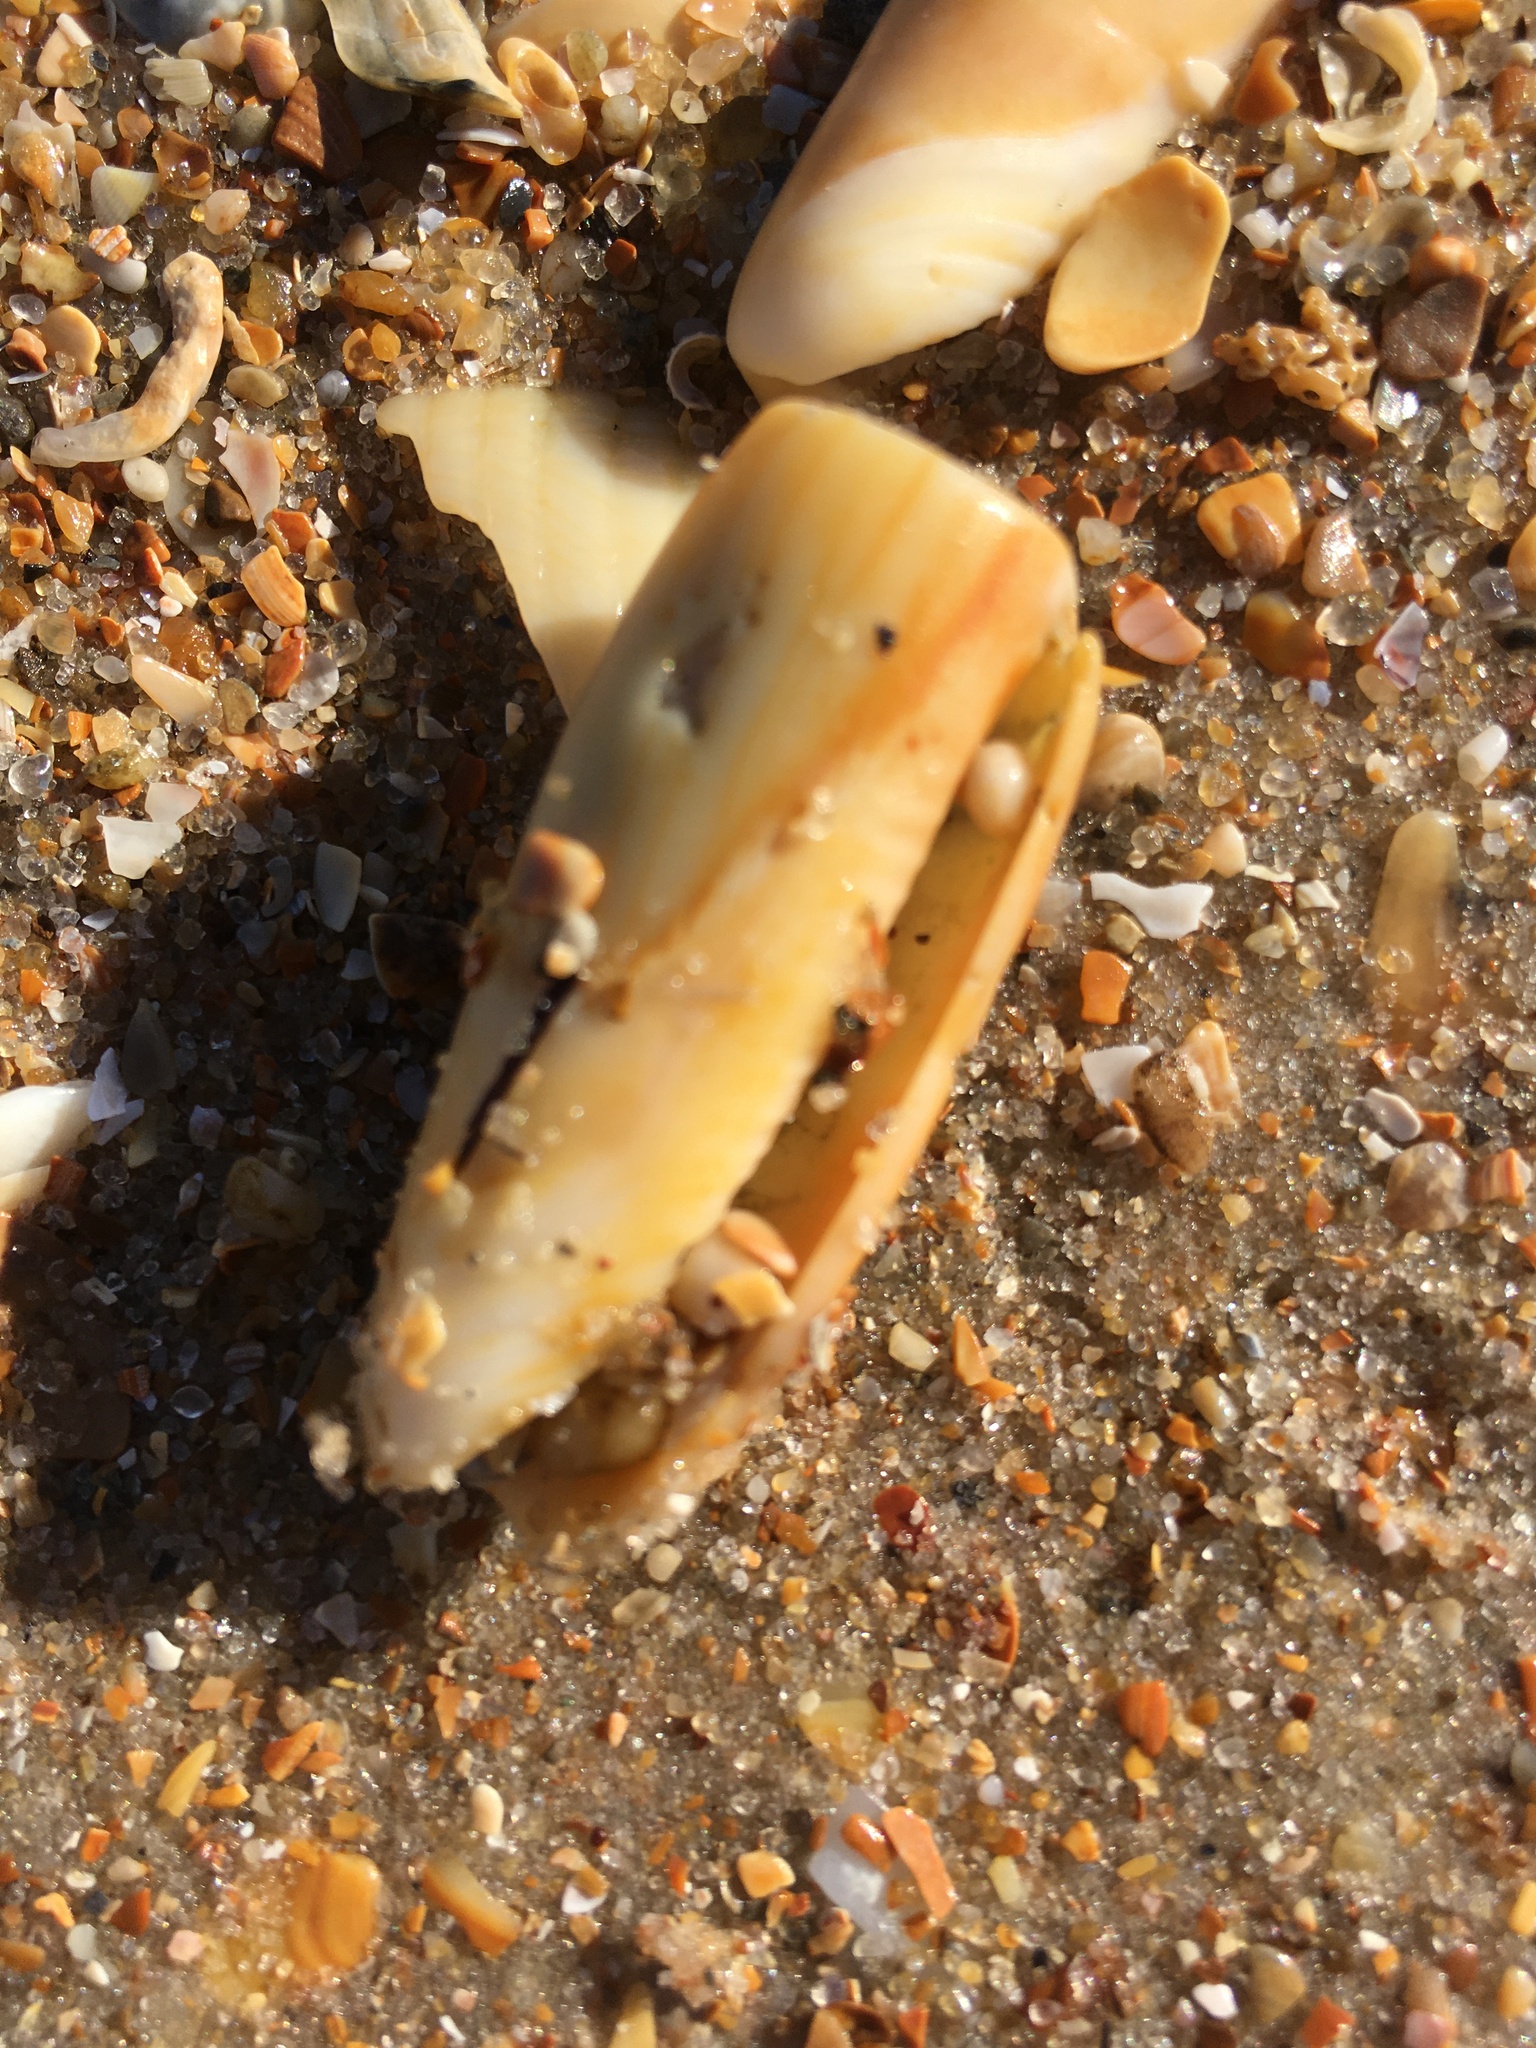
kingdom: Animalia
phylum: Mollusca
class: Gastropoda
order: Neogastropoda
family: Olividae
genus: Oliva
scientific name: Oliva sayana
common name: Lettered olive
